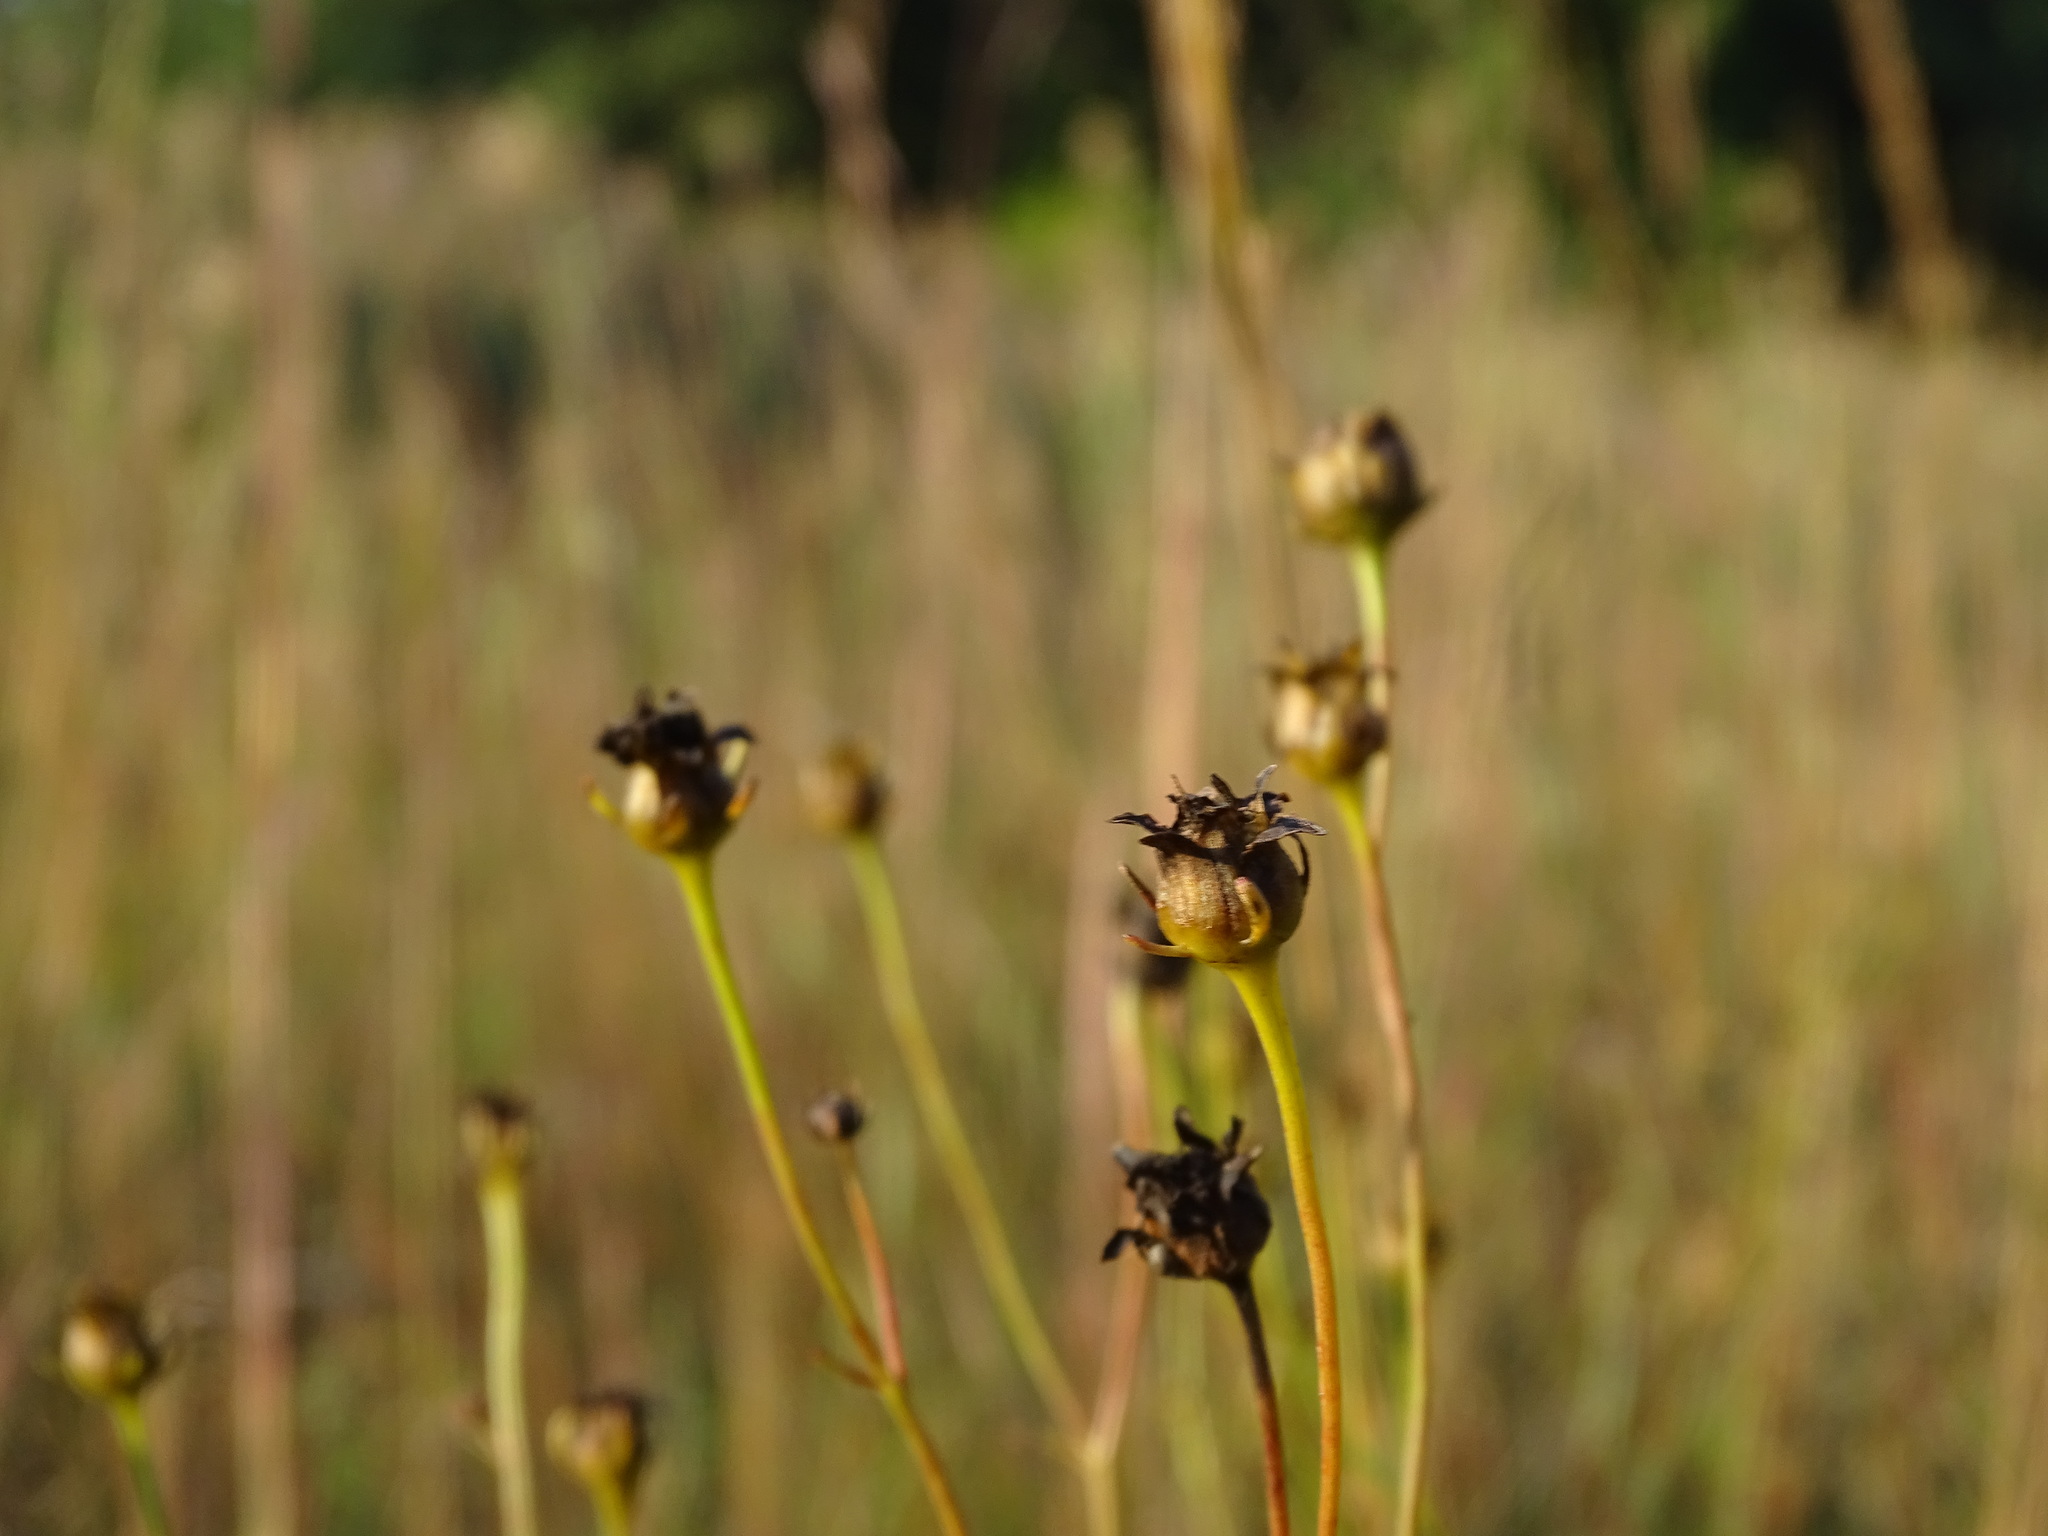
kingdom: Plantae
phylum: Tracheophyta
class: Magnoliopsida
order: Asterales
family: Asteraceae
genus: Coreopsis
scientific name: Coreopsis tripteris
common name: Tall coreopsis
